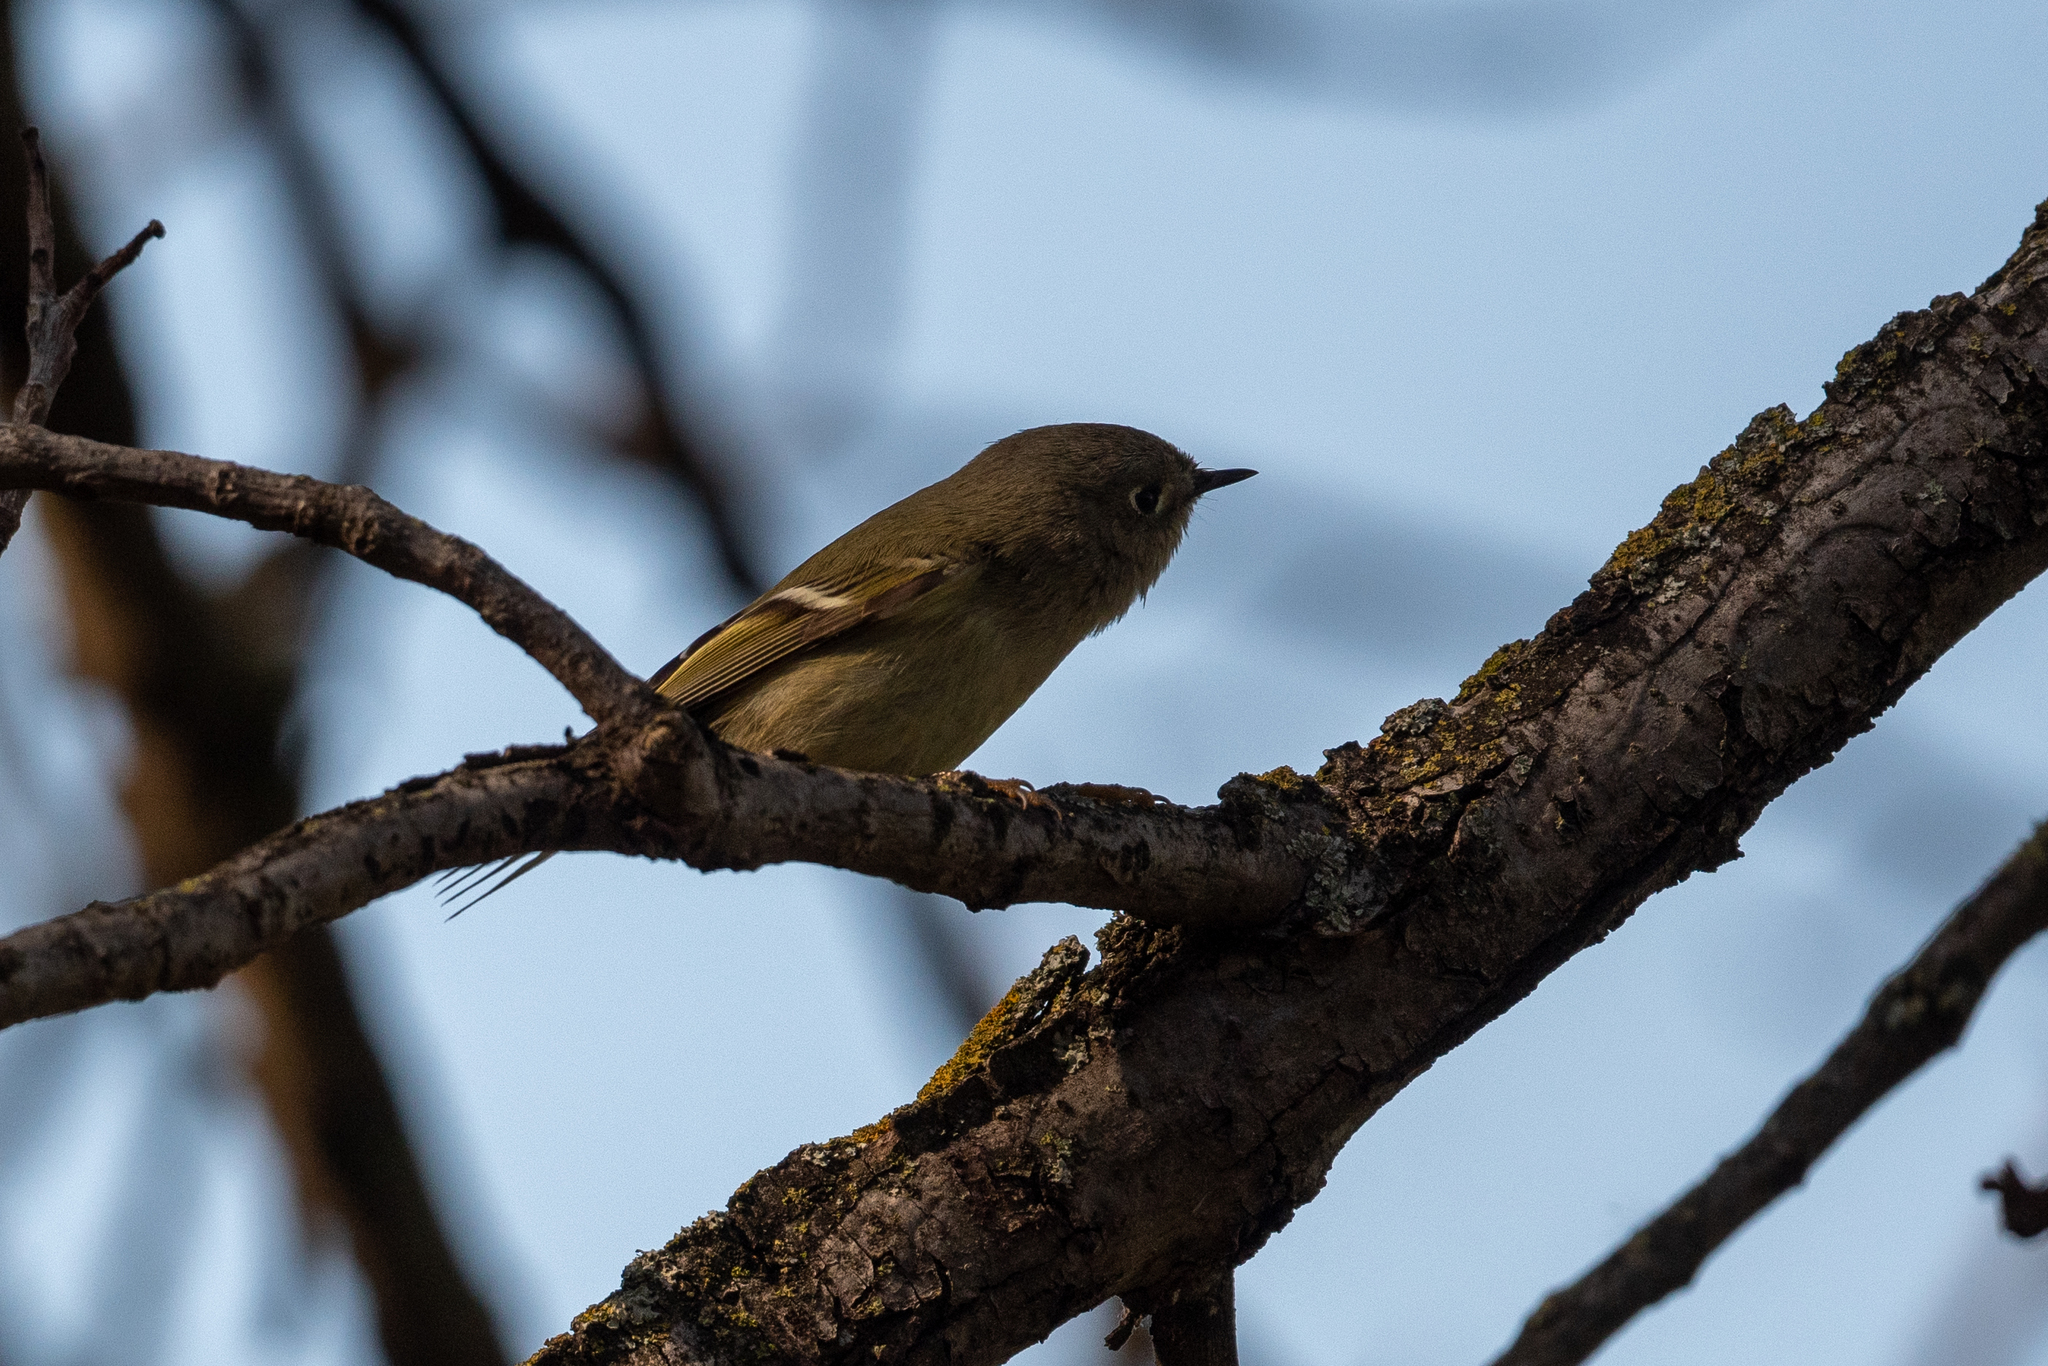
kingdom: Animalia
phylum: Chordata
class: Aves
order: Passeriformes
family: Regulidae
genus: Regulus
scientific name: Regulus calendula
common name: Ruby-crowned kinglet
